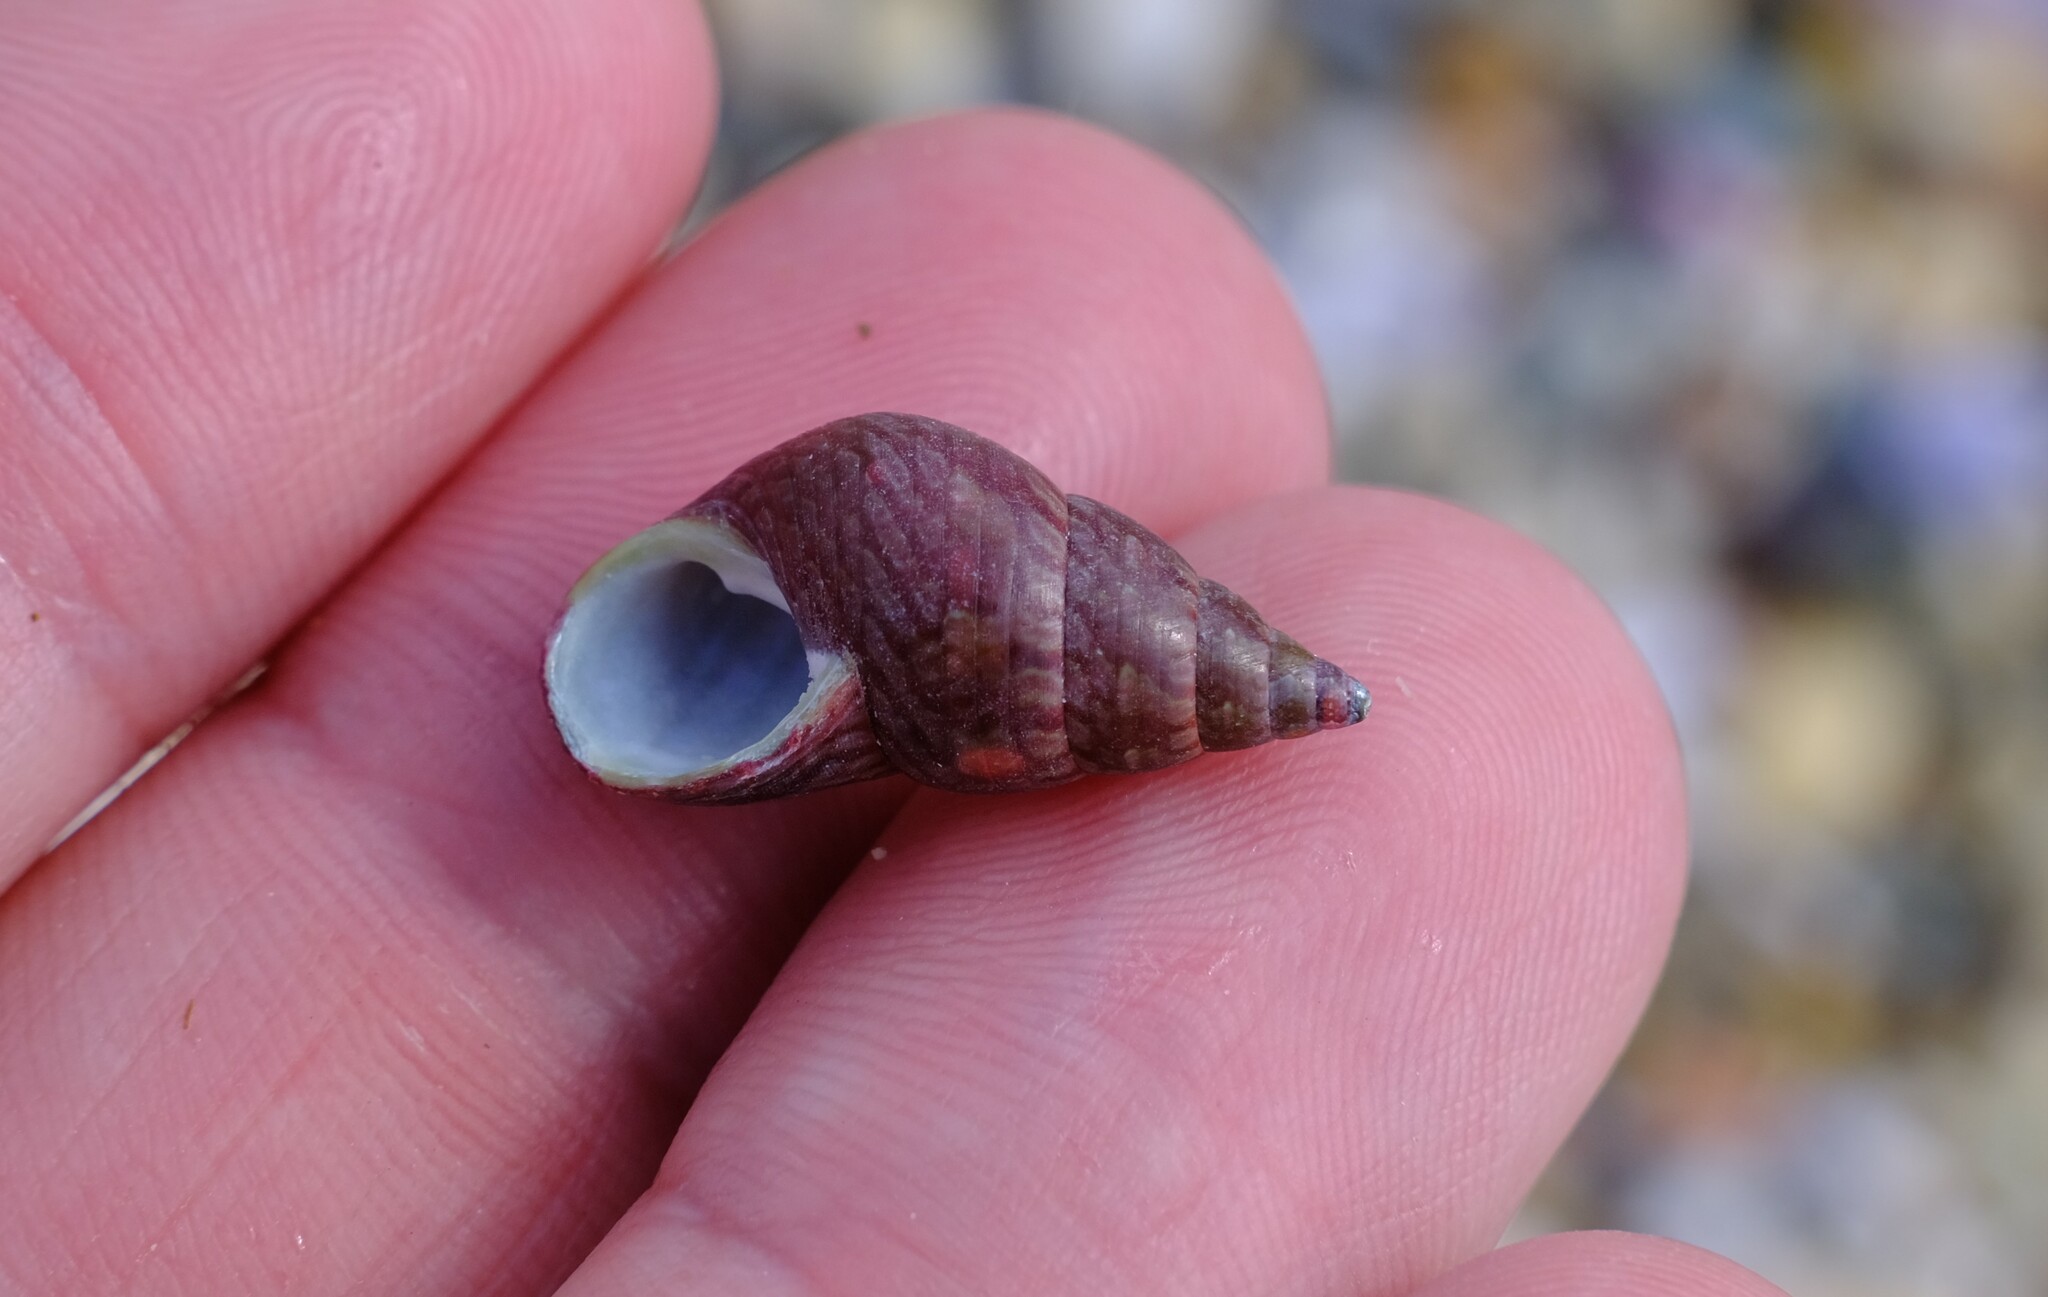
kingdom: Animalia
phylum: Mollusca
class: Gastropoda
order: Trochida
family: Trochidae
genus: Phasianotrochus
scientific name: Phasianotrochus eximius
